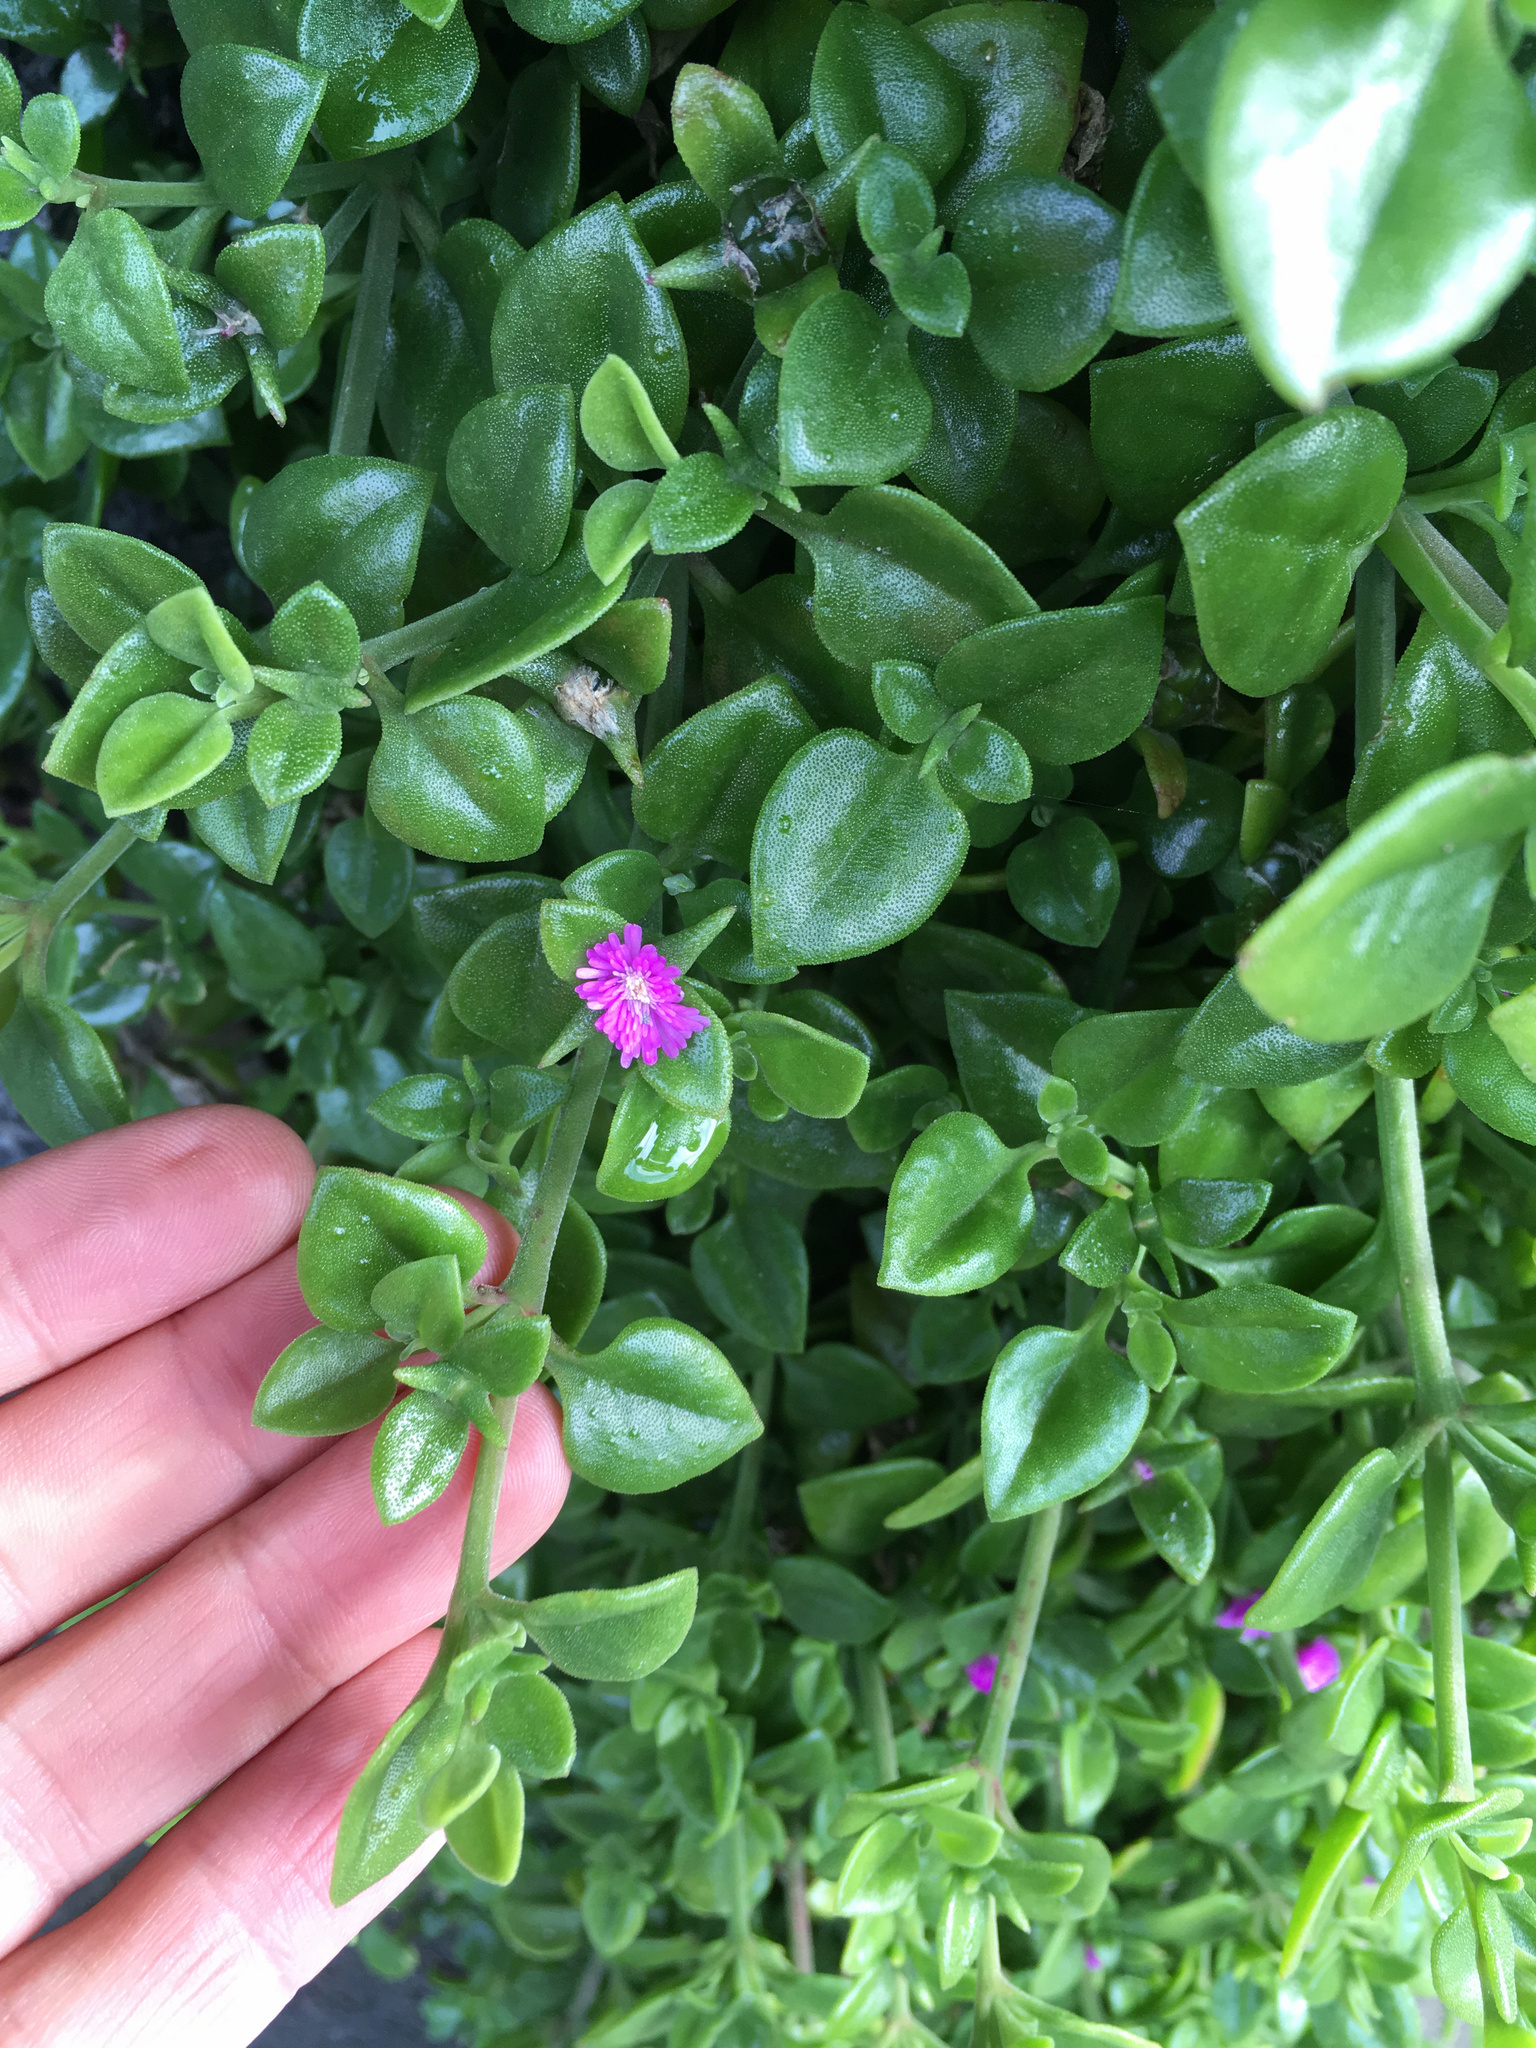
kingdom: Plantae
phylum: Tracheophyta
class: Magnoliopsida
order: Caryophyllales
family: Aizoaceae
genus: Mesembryanthemum
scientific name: Mesembryanthemum cordifolium
